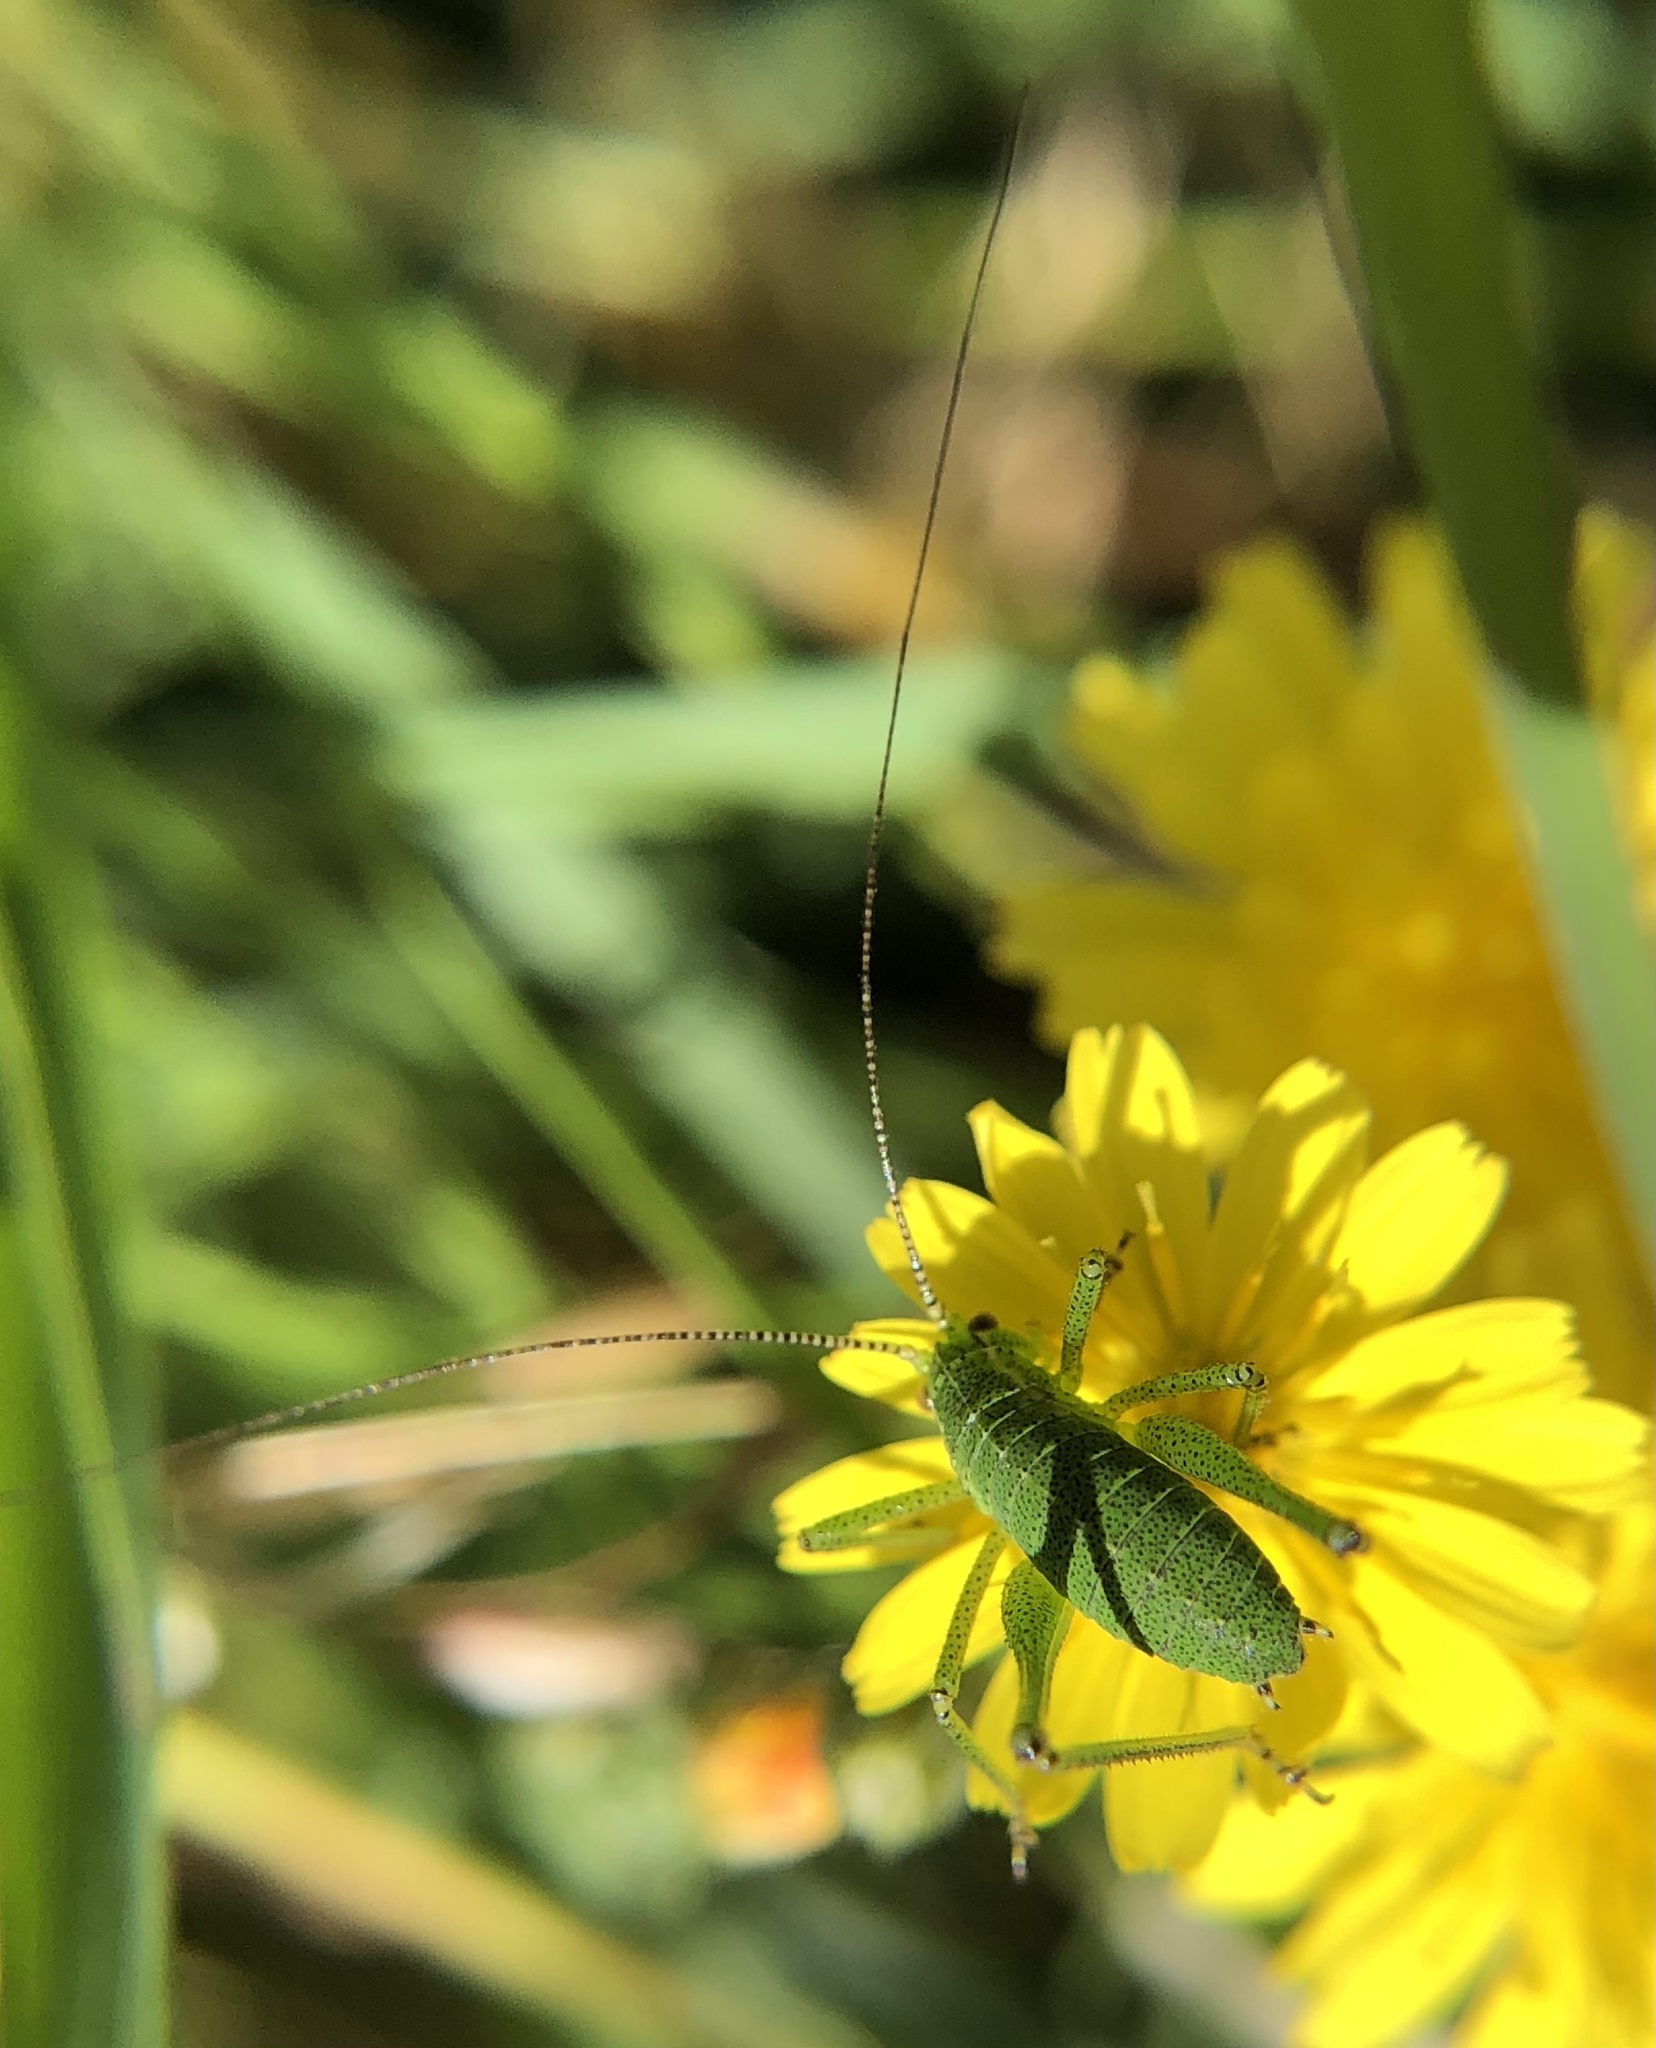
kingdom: Animalia
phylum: Arthropoda
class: Insecta
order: Orthoptera
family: Tettigoniidae
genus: Leptophyes
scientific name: Leptophyes punctatissima
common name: Speckled bush-cricket
